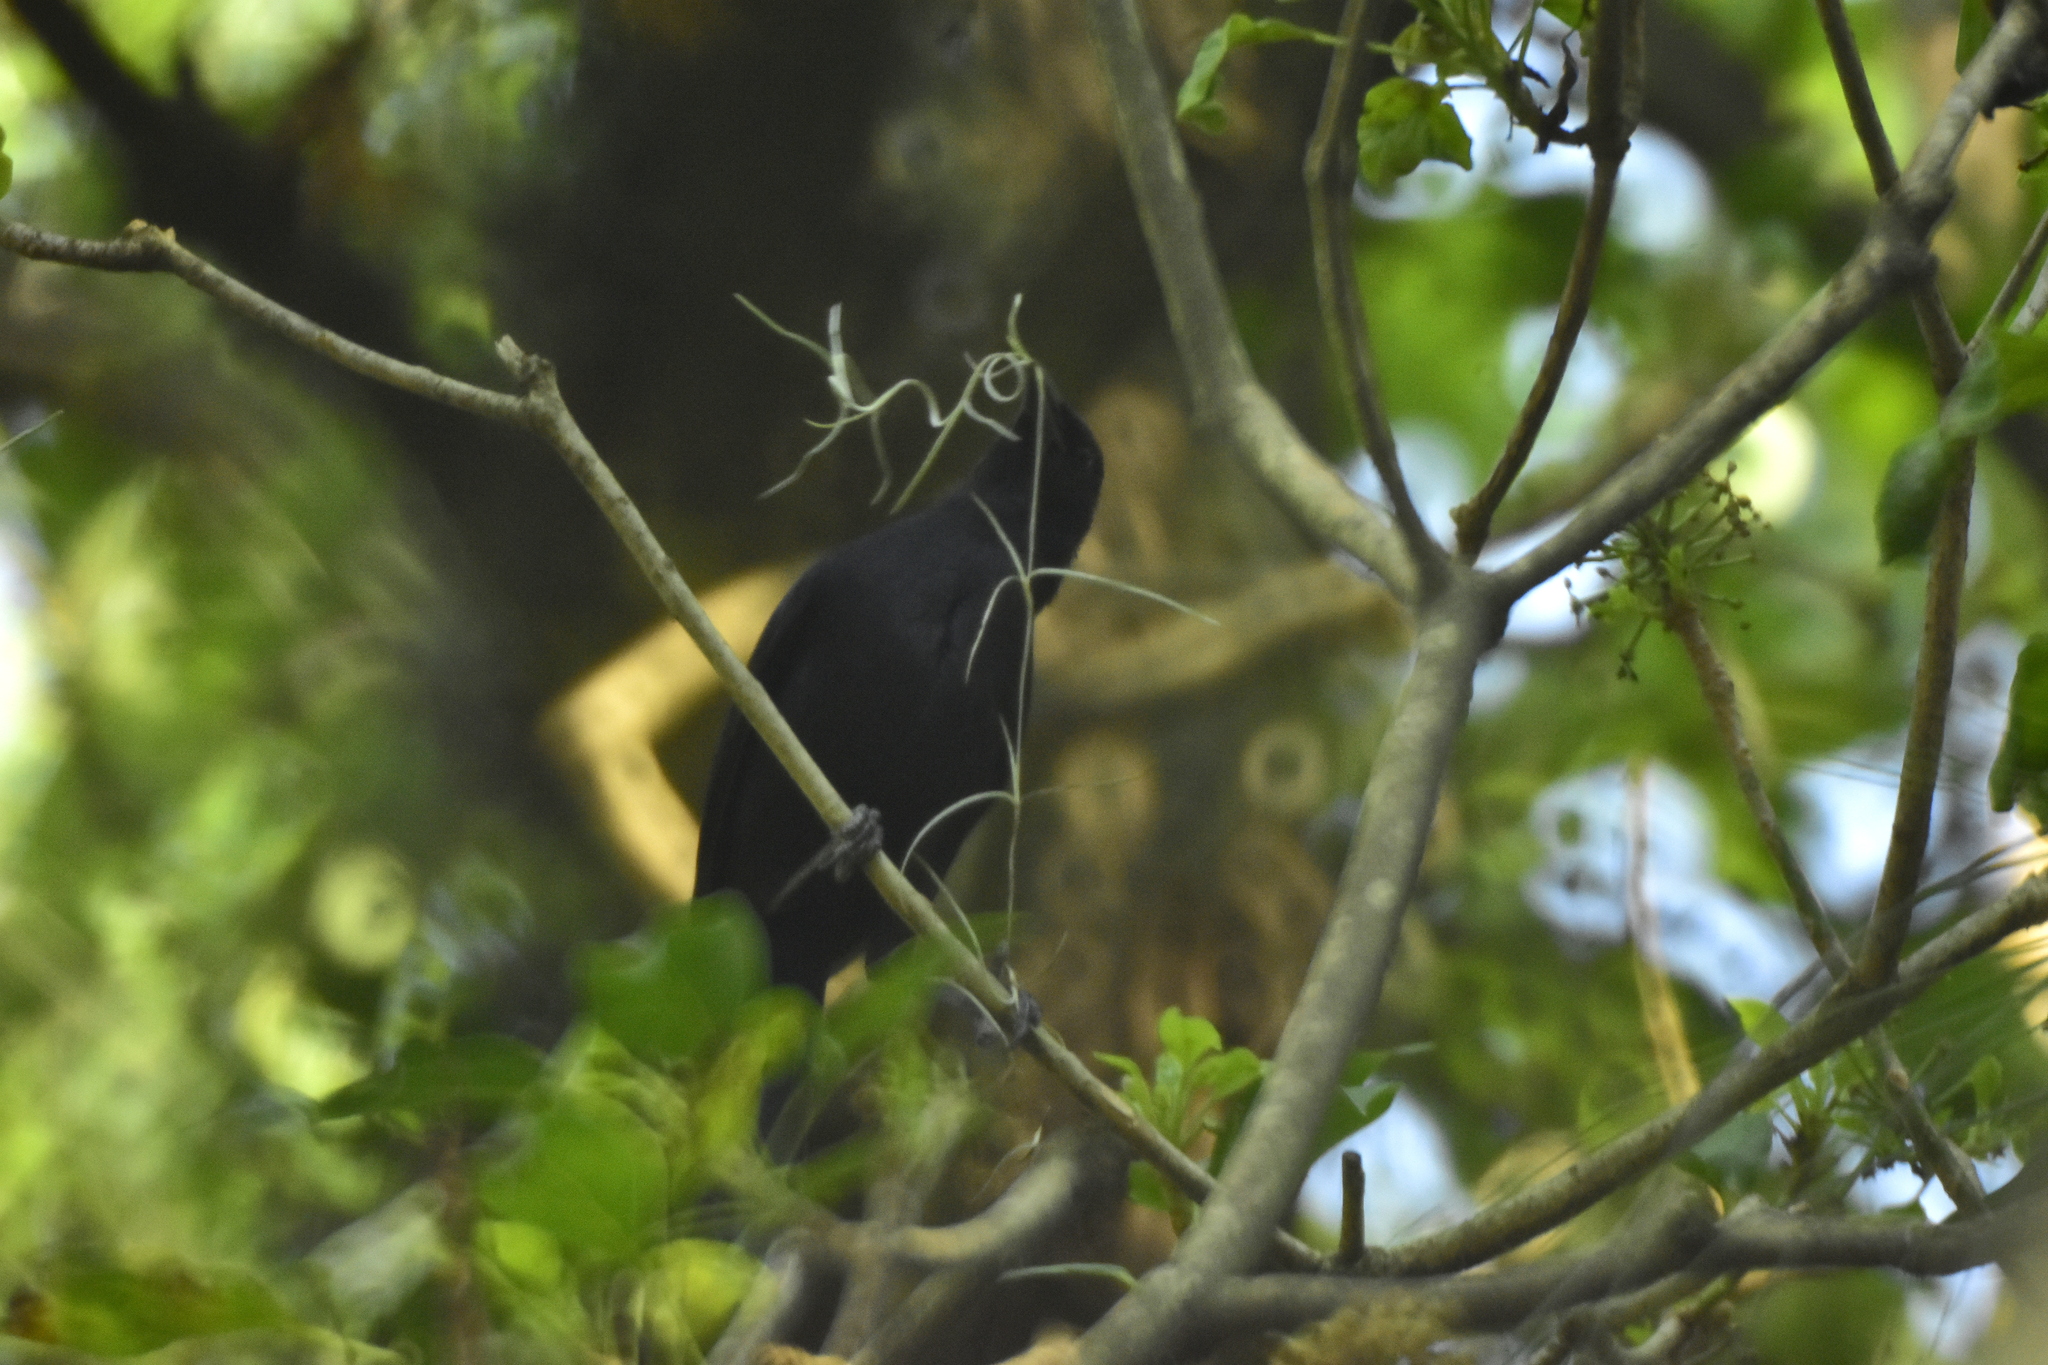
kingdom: Animalia
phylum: Chordata
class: Aves
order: Passeriformes
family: Icteridae
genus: Dives
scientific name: Dives dives
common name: Melodious blackbird
